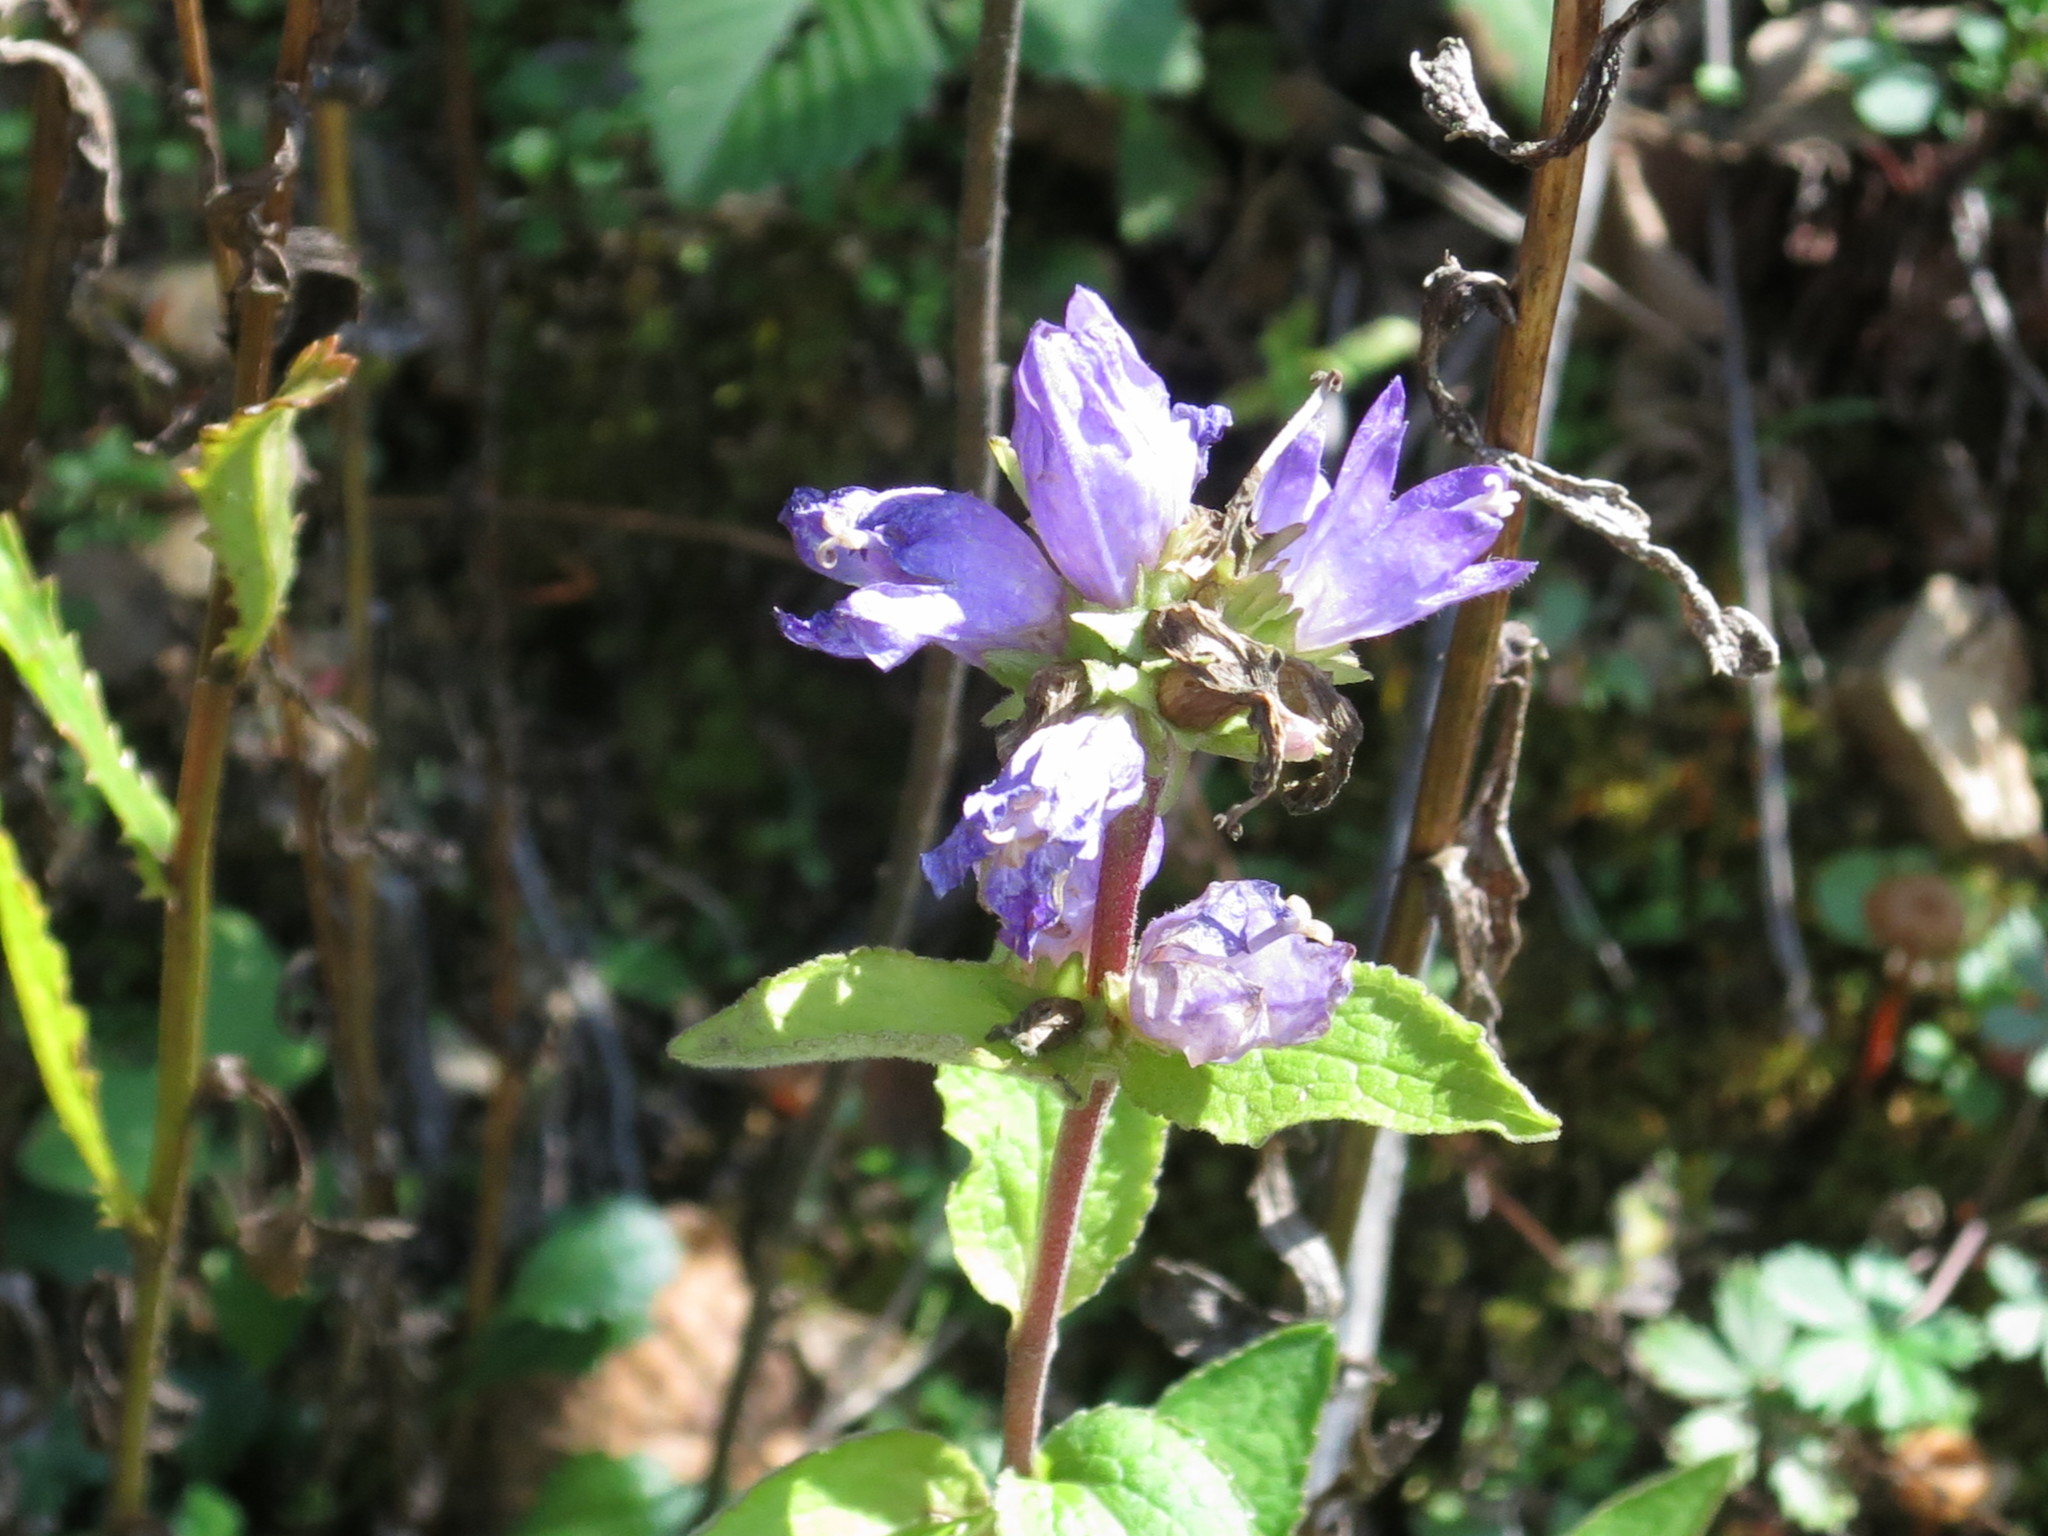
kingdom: Plantae
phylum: Tracheophyta
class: Magnoliopsida
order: Asterales
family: Campanulaceae
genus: Campanula
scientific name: Campanula glomerata
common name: Clustered bellflower
